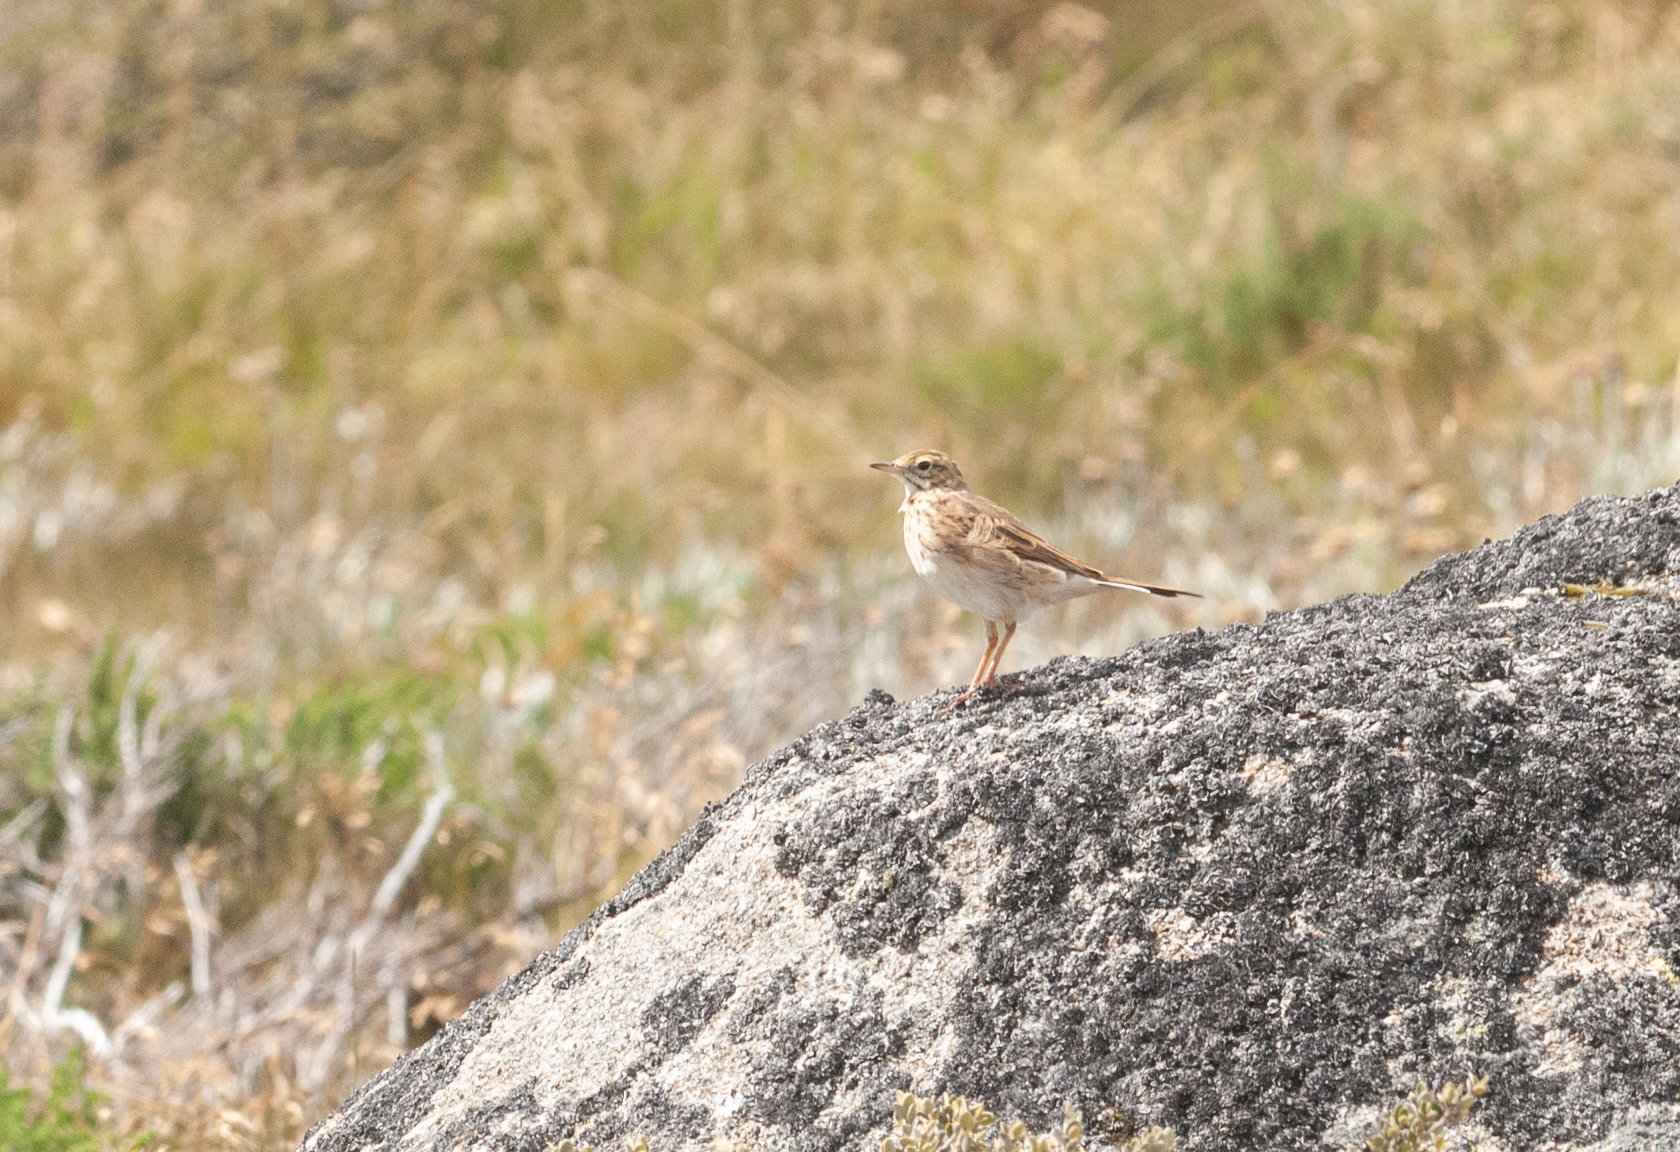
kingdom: Animalia
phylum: Chordata
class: Aves
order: Passeriformes
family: Motacillidae
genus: Anthus
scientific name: Anthus australis
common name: Australian pipit
